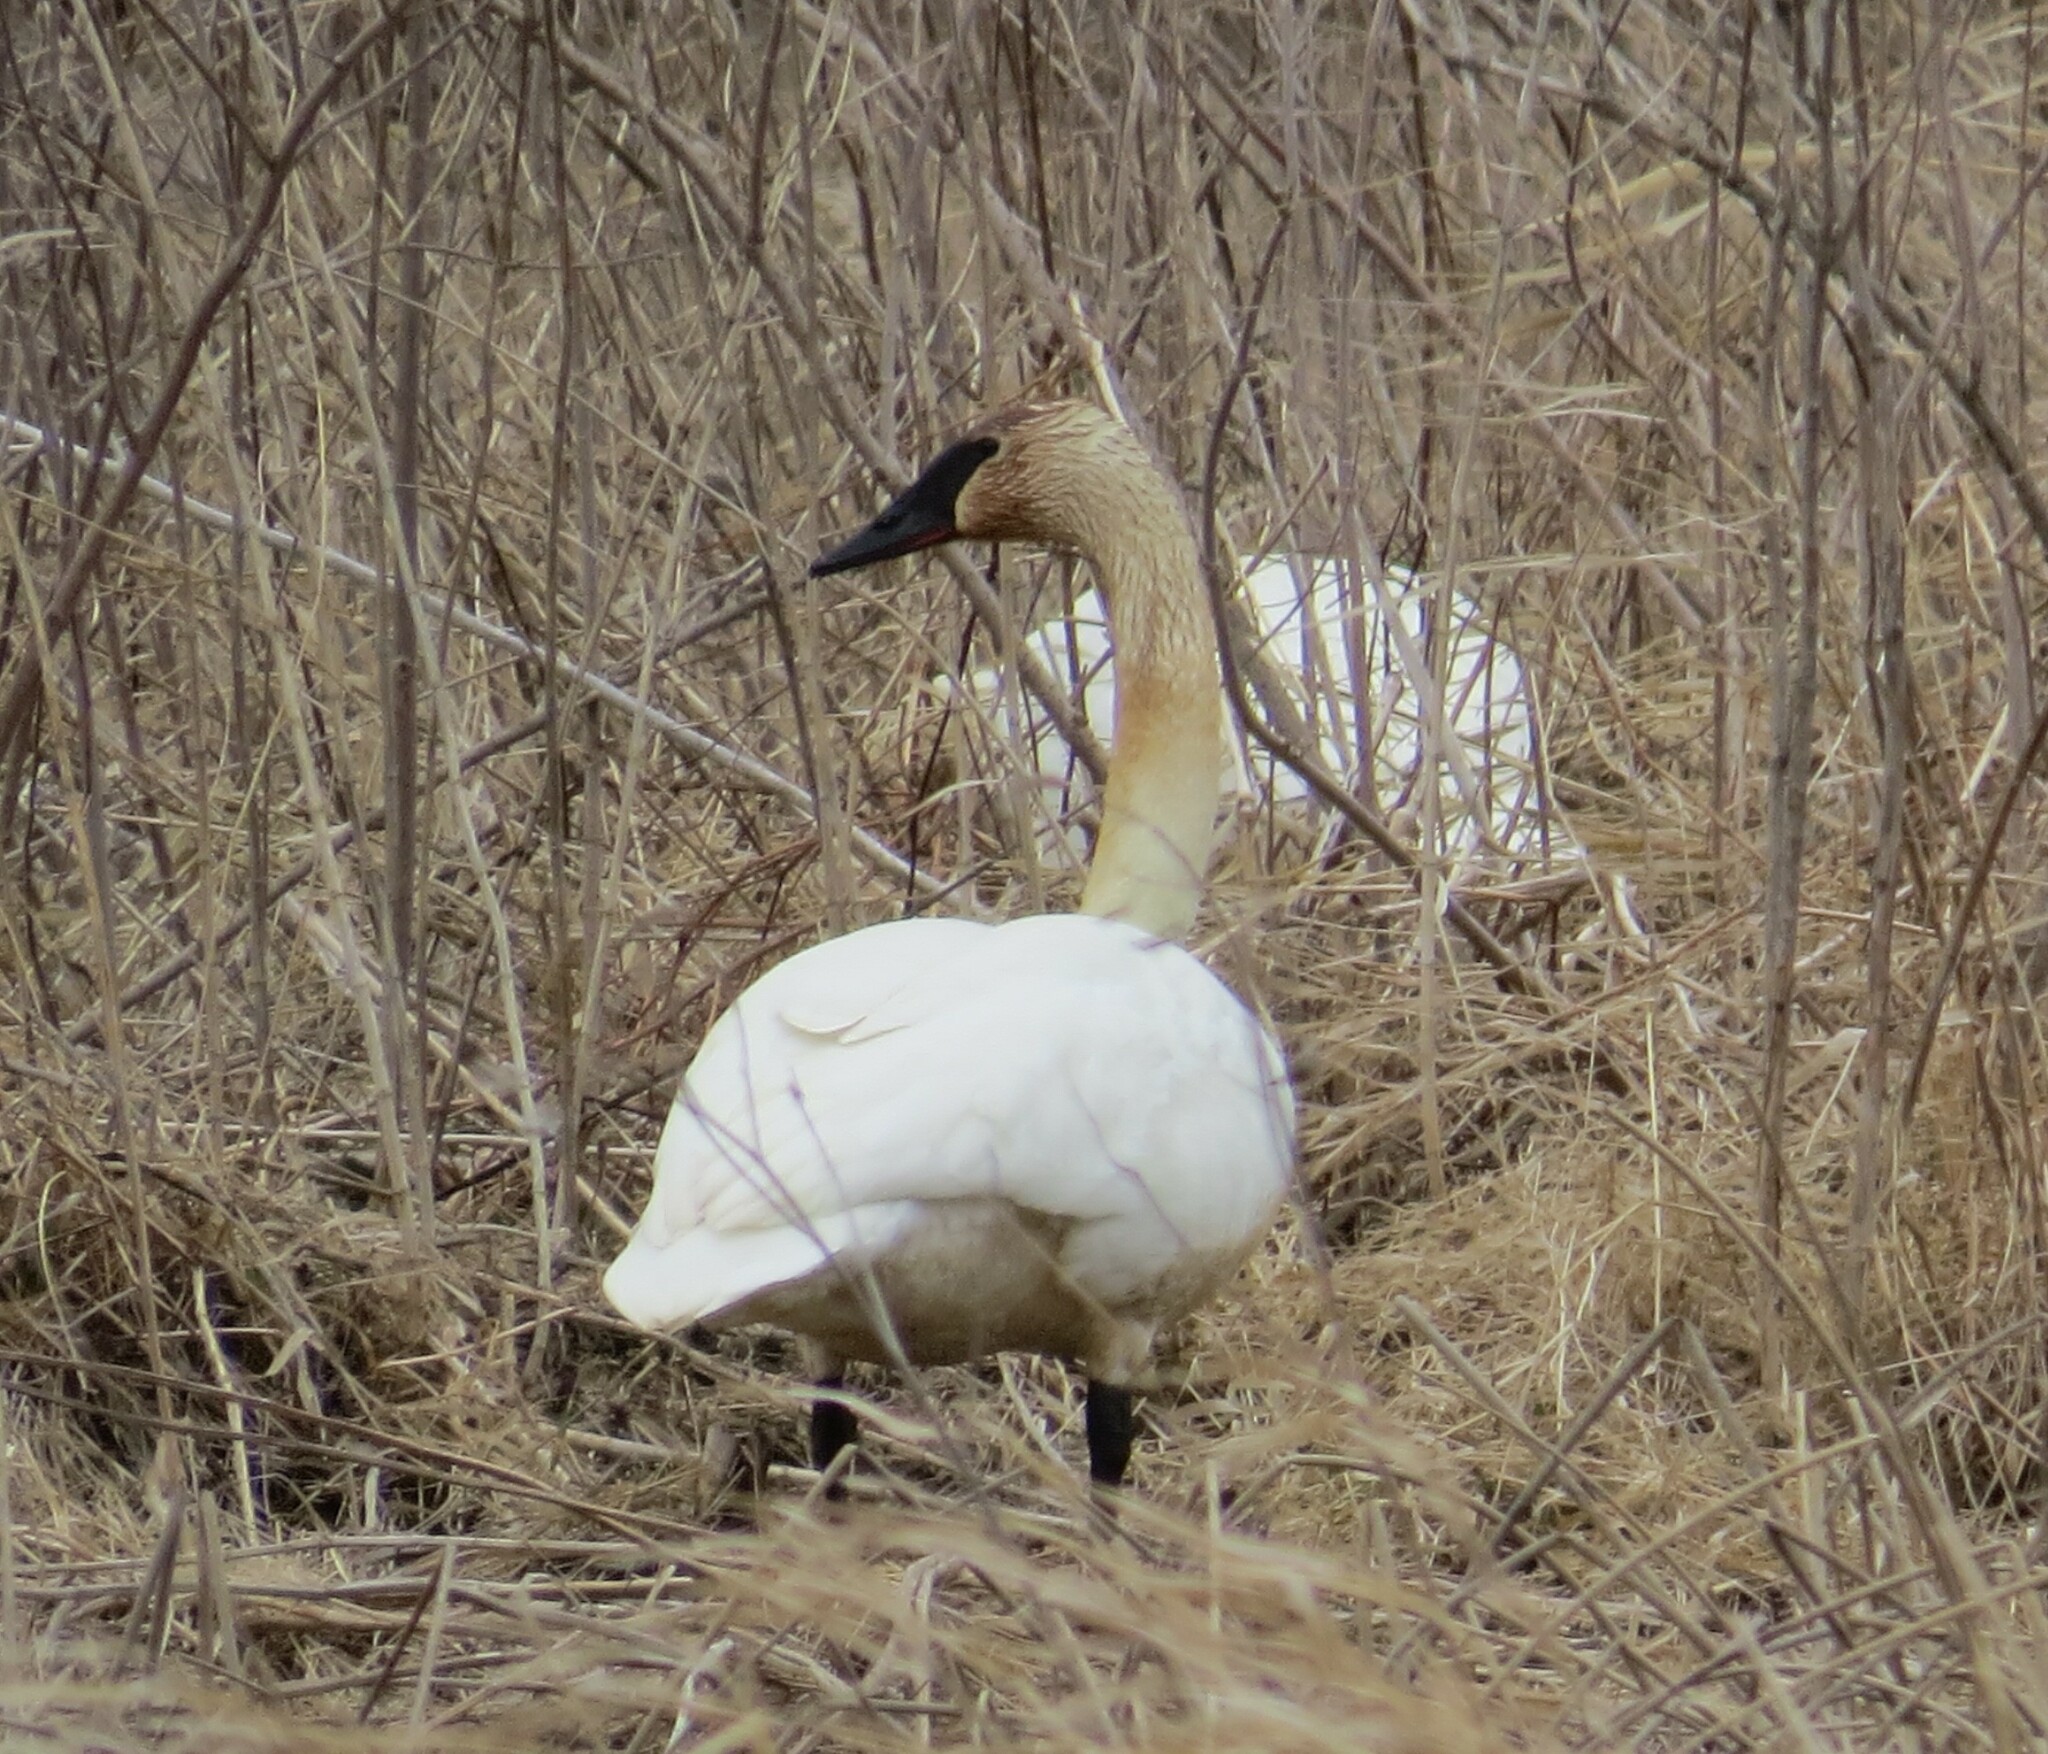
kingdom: Animalia
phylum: Chordata
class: Aves
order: Anseriformes
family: Anatidae
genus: Cygnus
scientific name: Cygnus buccinator
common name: Trumpeter swan
